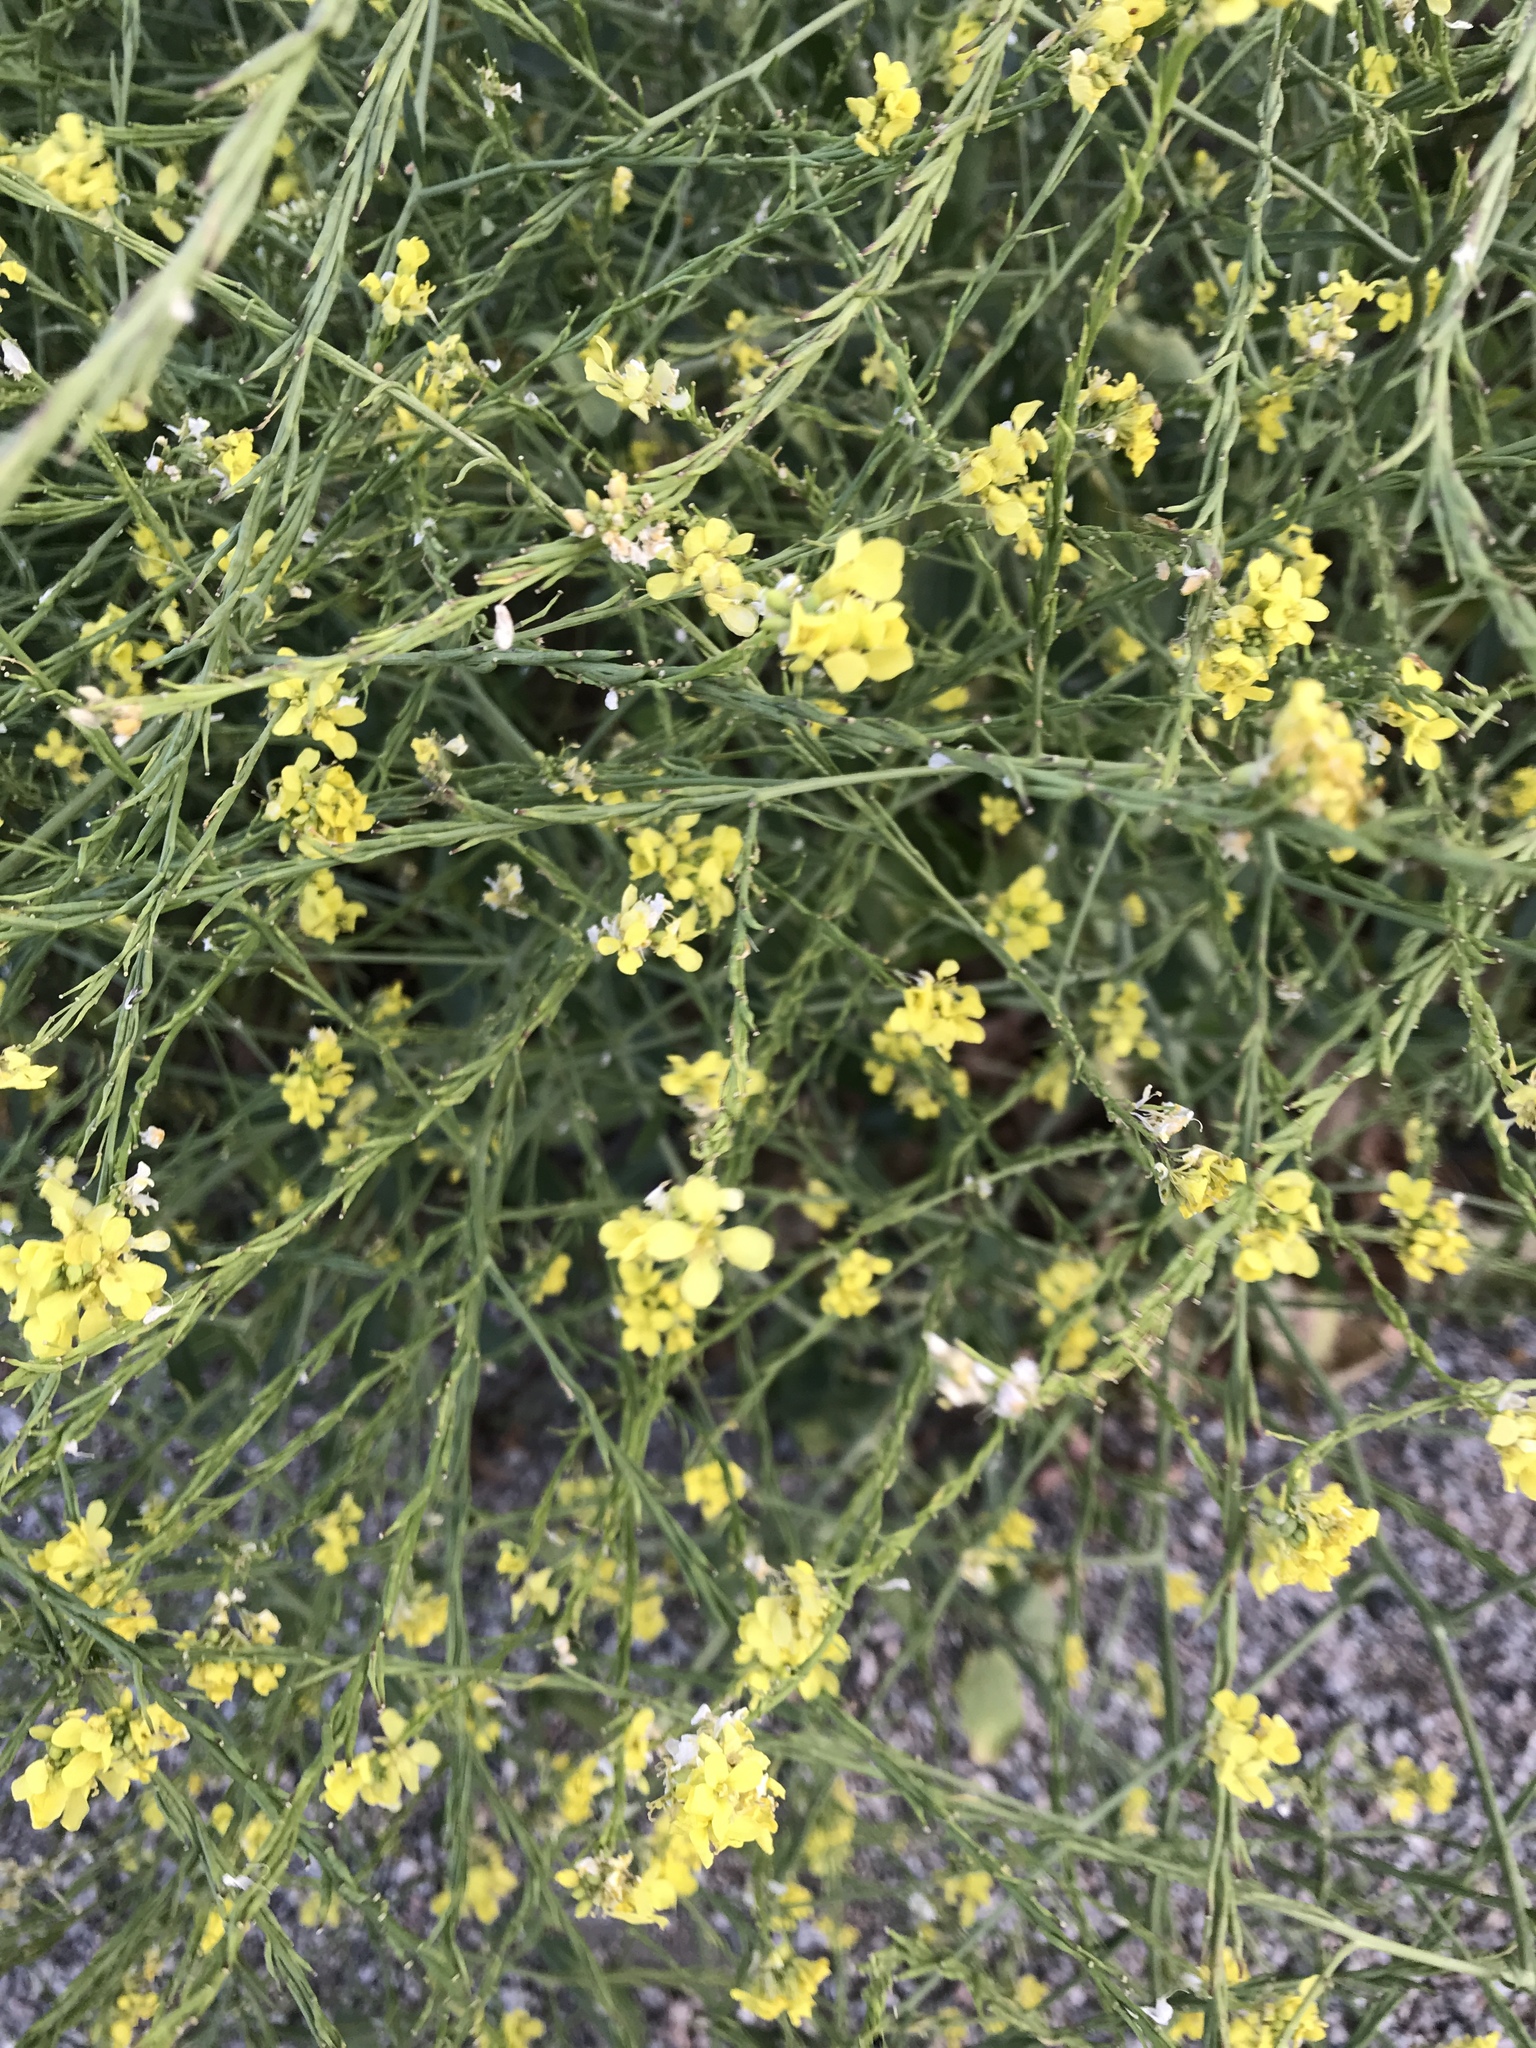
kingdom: Plantae
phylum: Tracheophyta
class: Magnoliopsida
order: Brassicales
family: Brassicaceae
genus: Hirschfeldia
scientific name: Hirschfeldia incana
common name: Hoary mustard
